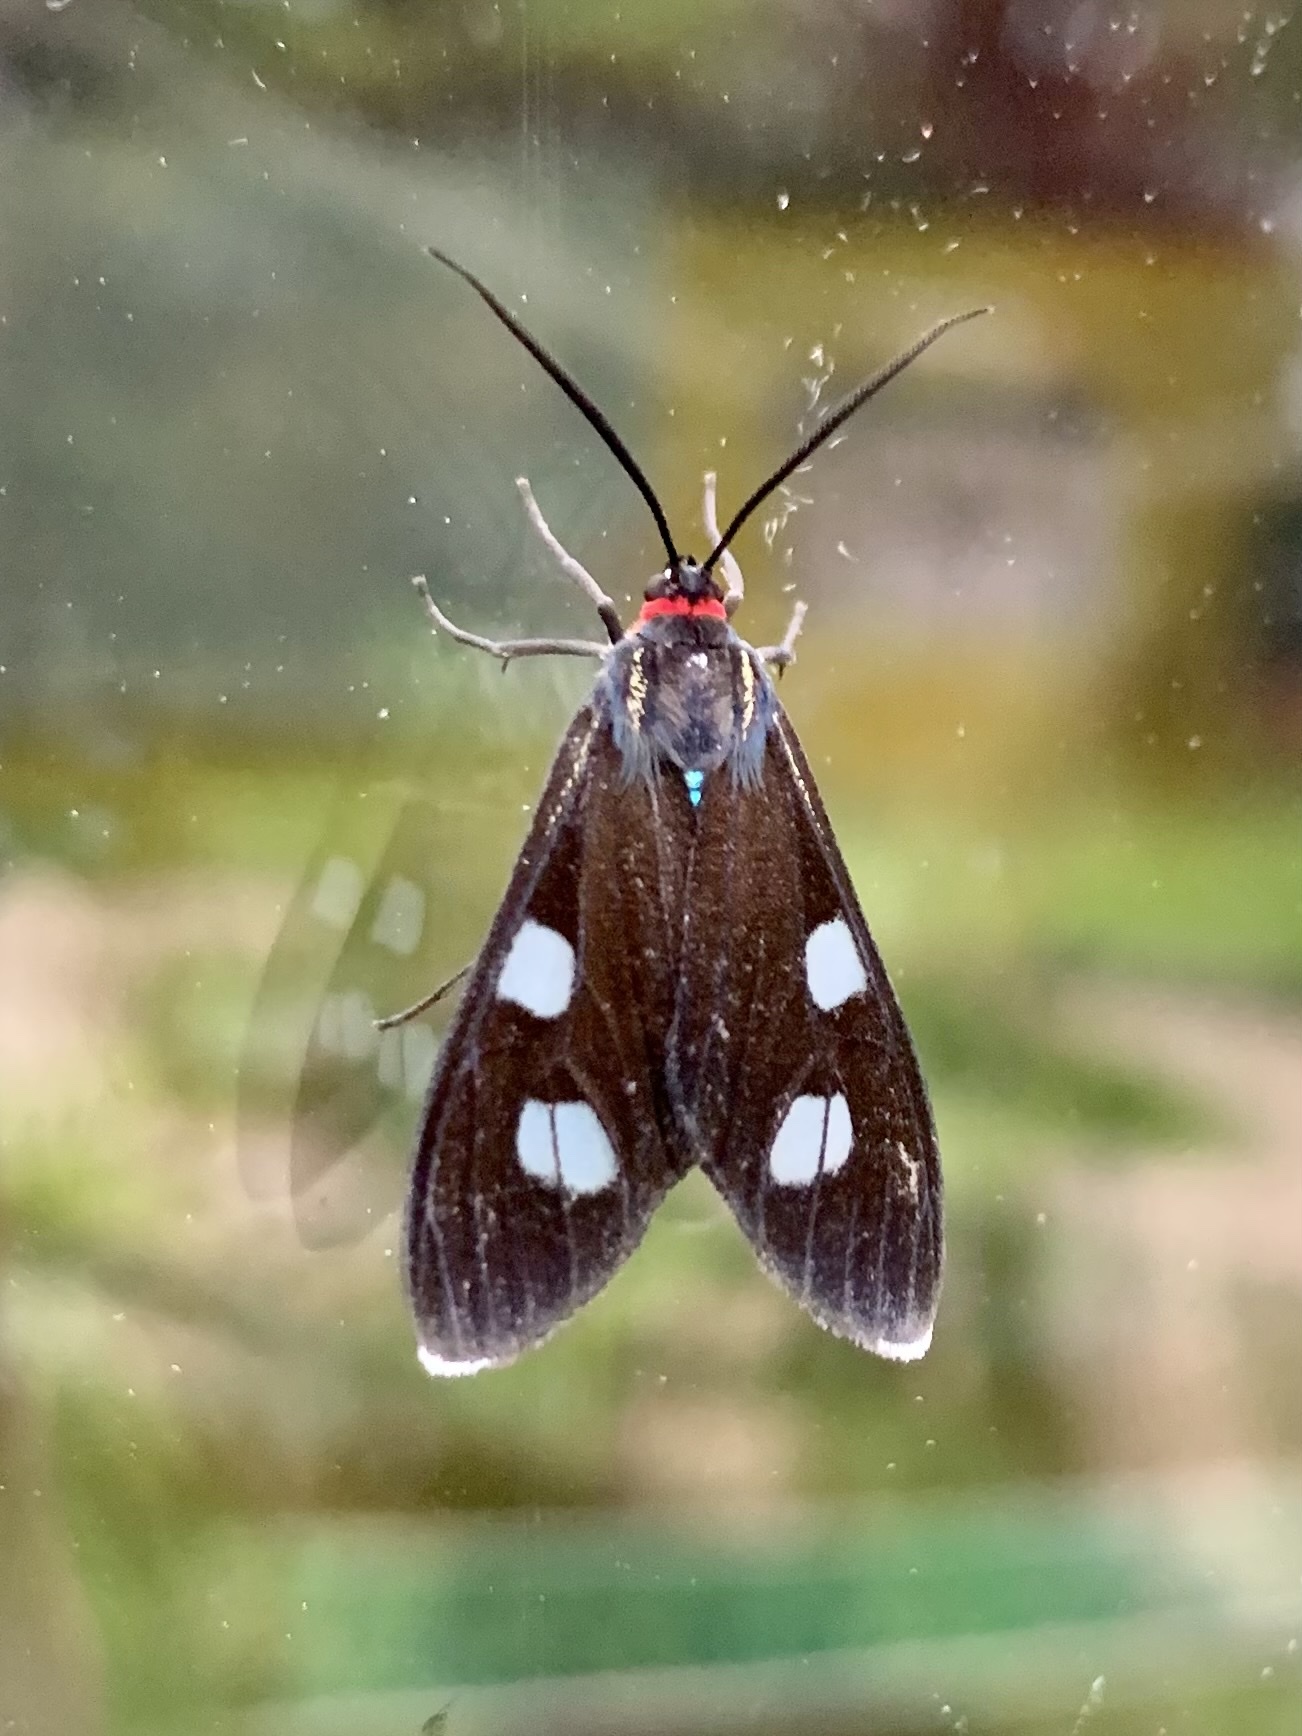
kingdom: Animalia
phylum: Arthropoda
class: Insecta
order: Lepidoptera
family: Erebidae
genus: Delphyre
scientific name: Delphyre tetilla
